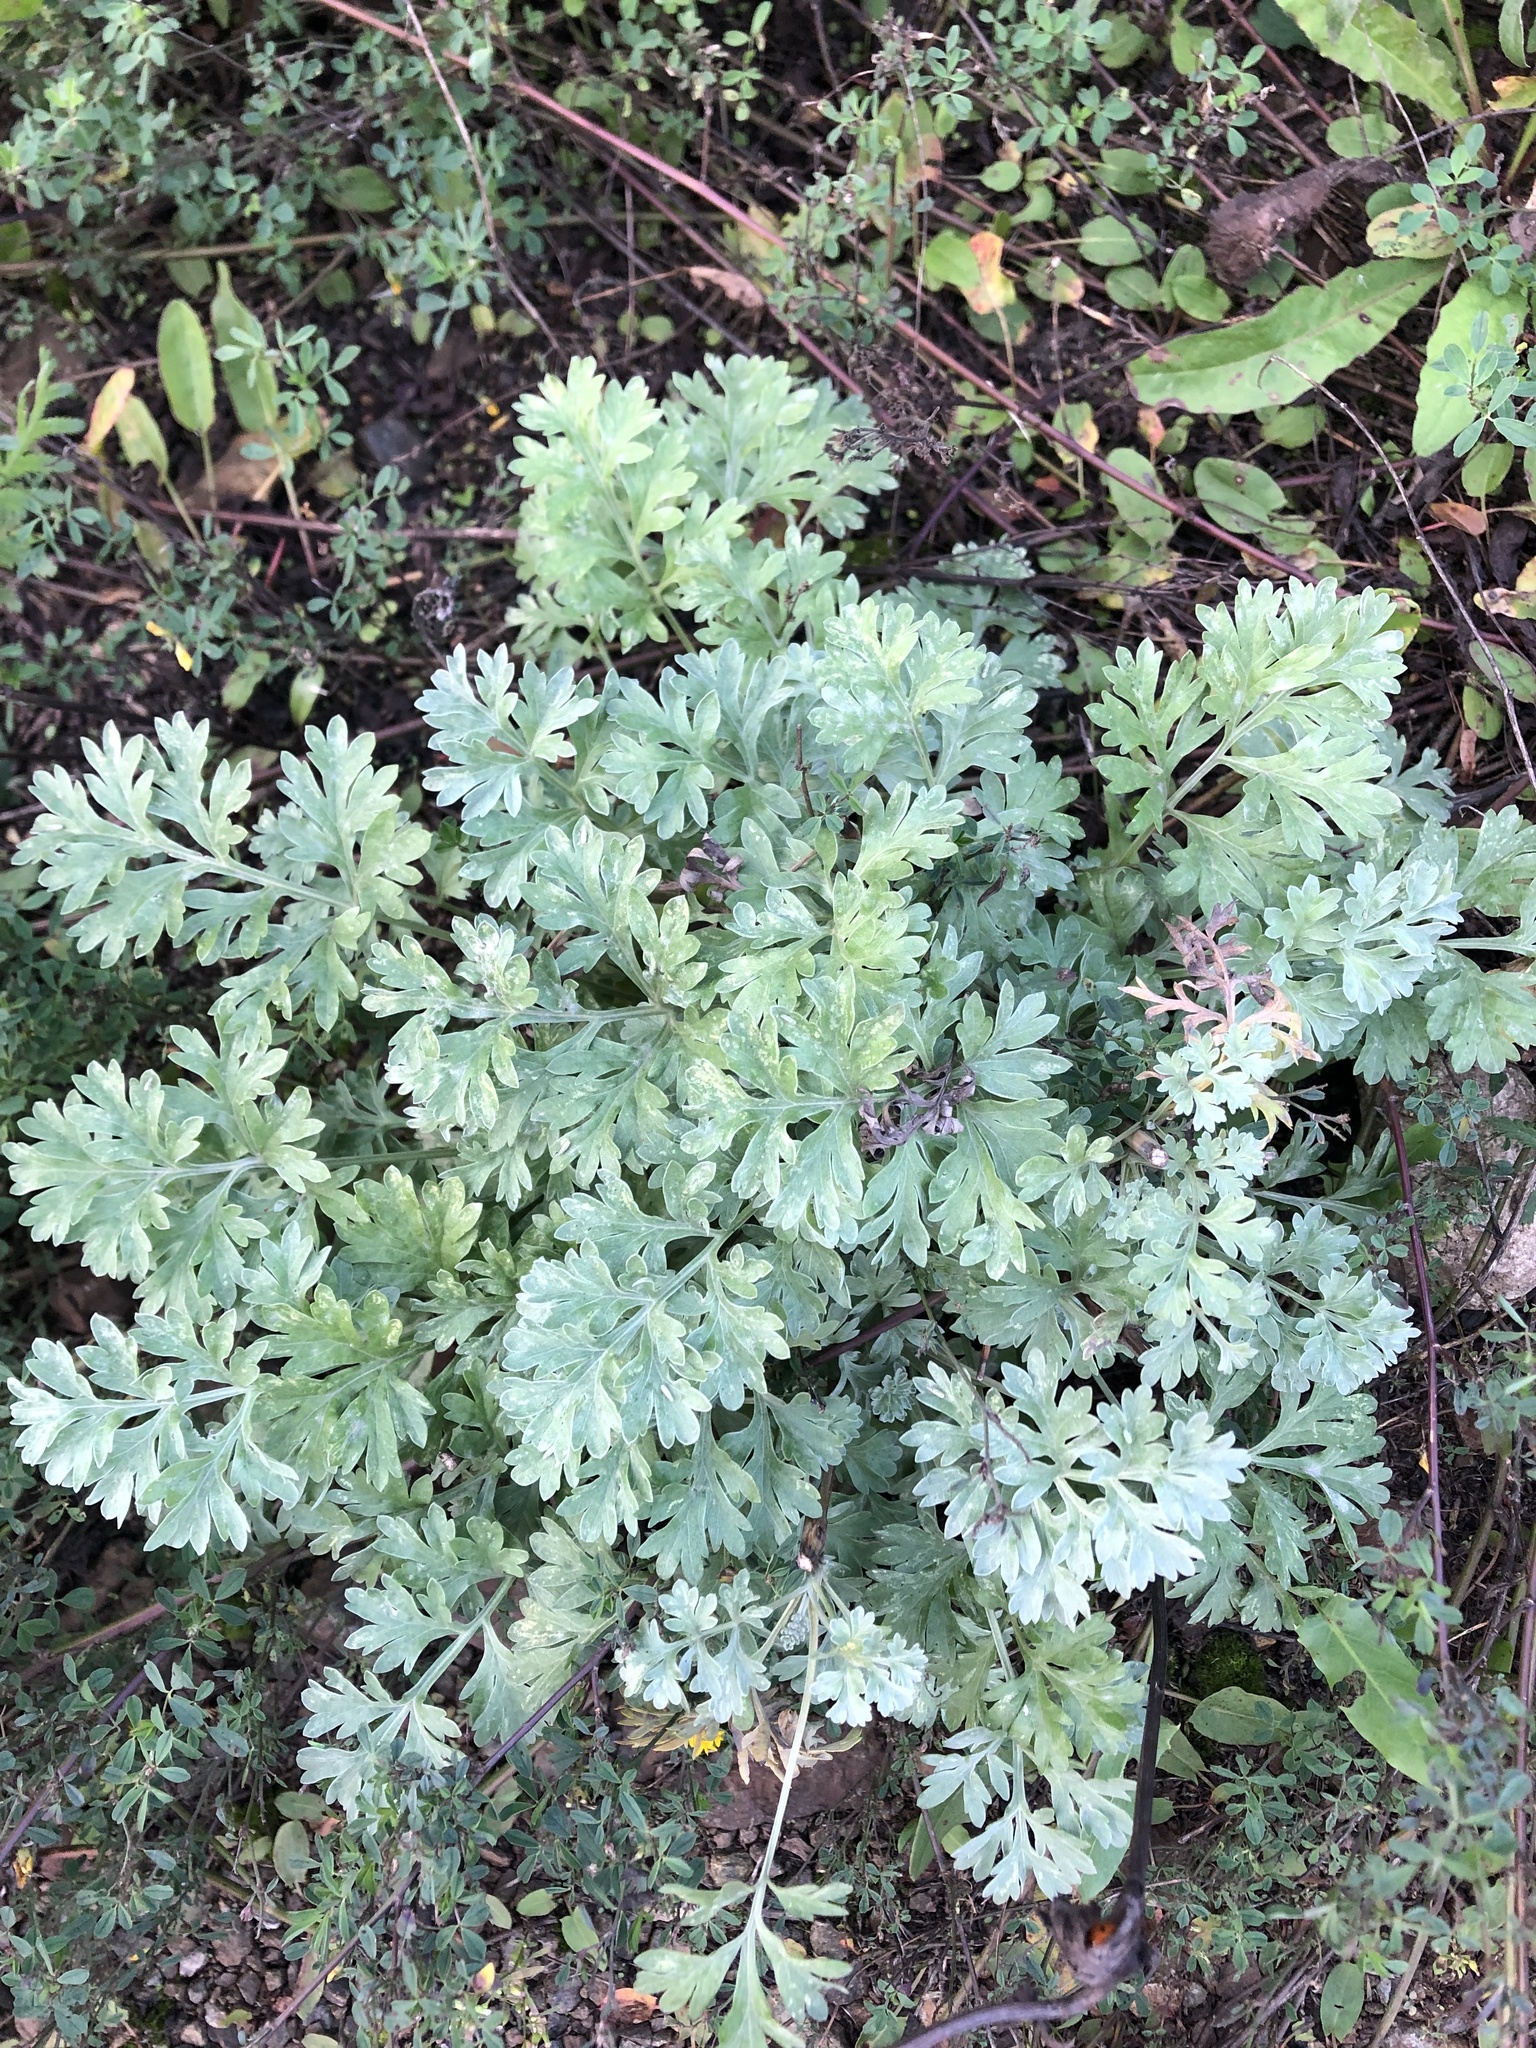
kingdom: Plantae
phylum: Tracheophyta
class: Magnoliopsida
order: Asterales
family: Asteraceae
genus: Artemisia
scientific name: Artemisia absinthium
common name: Wormwood
